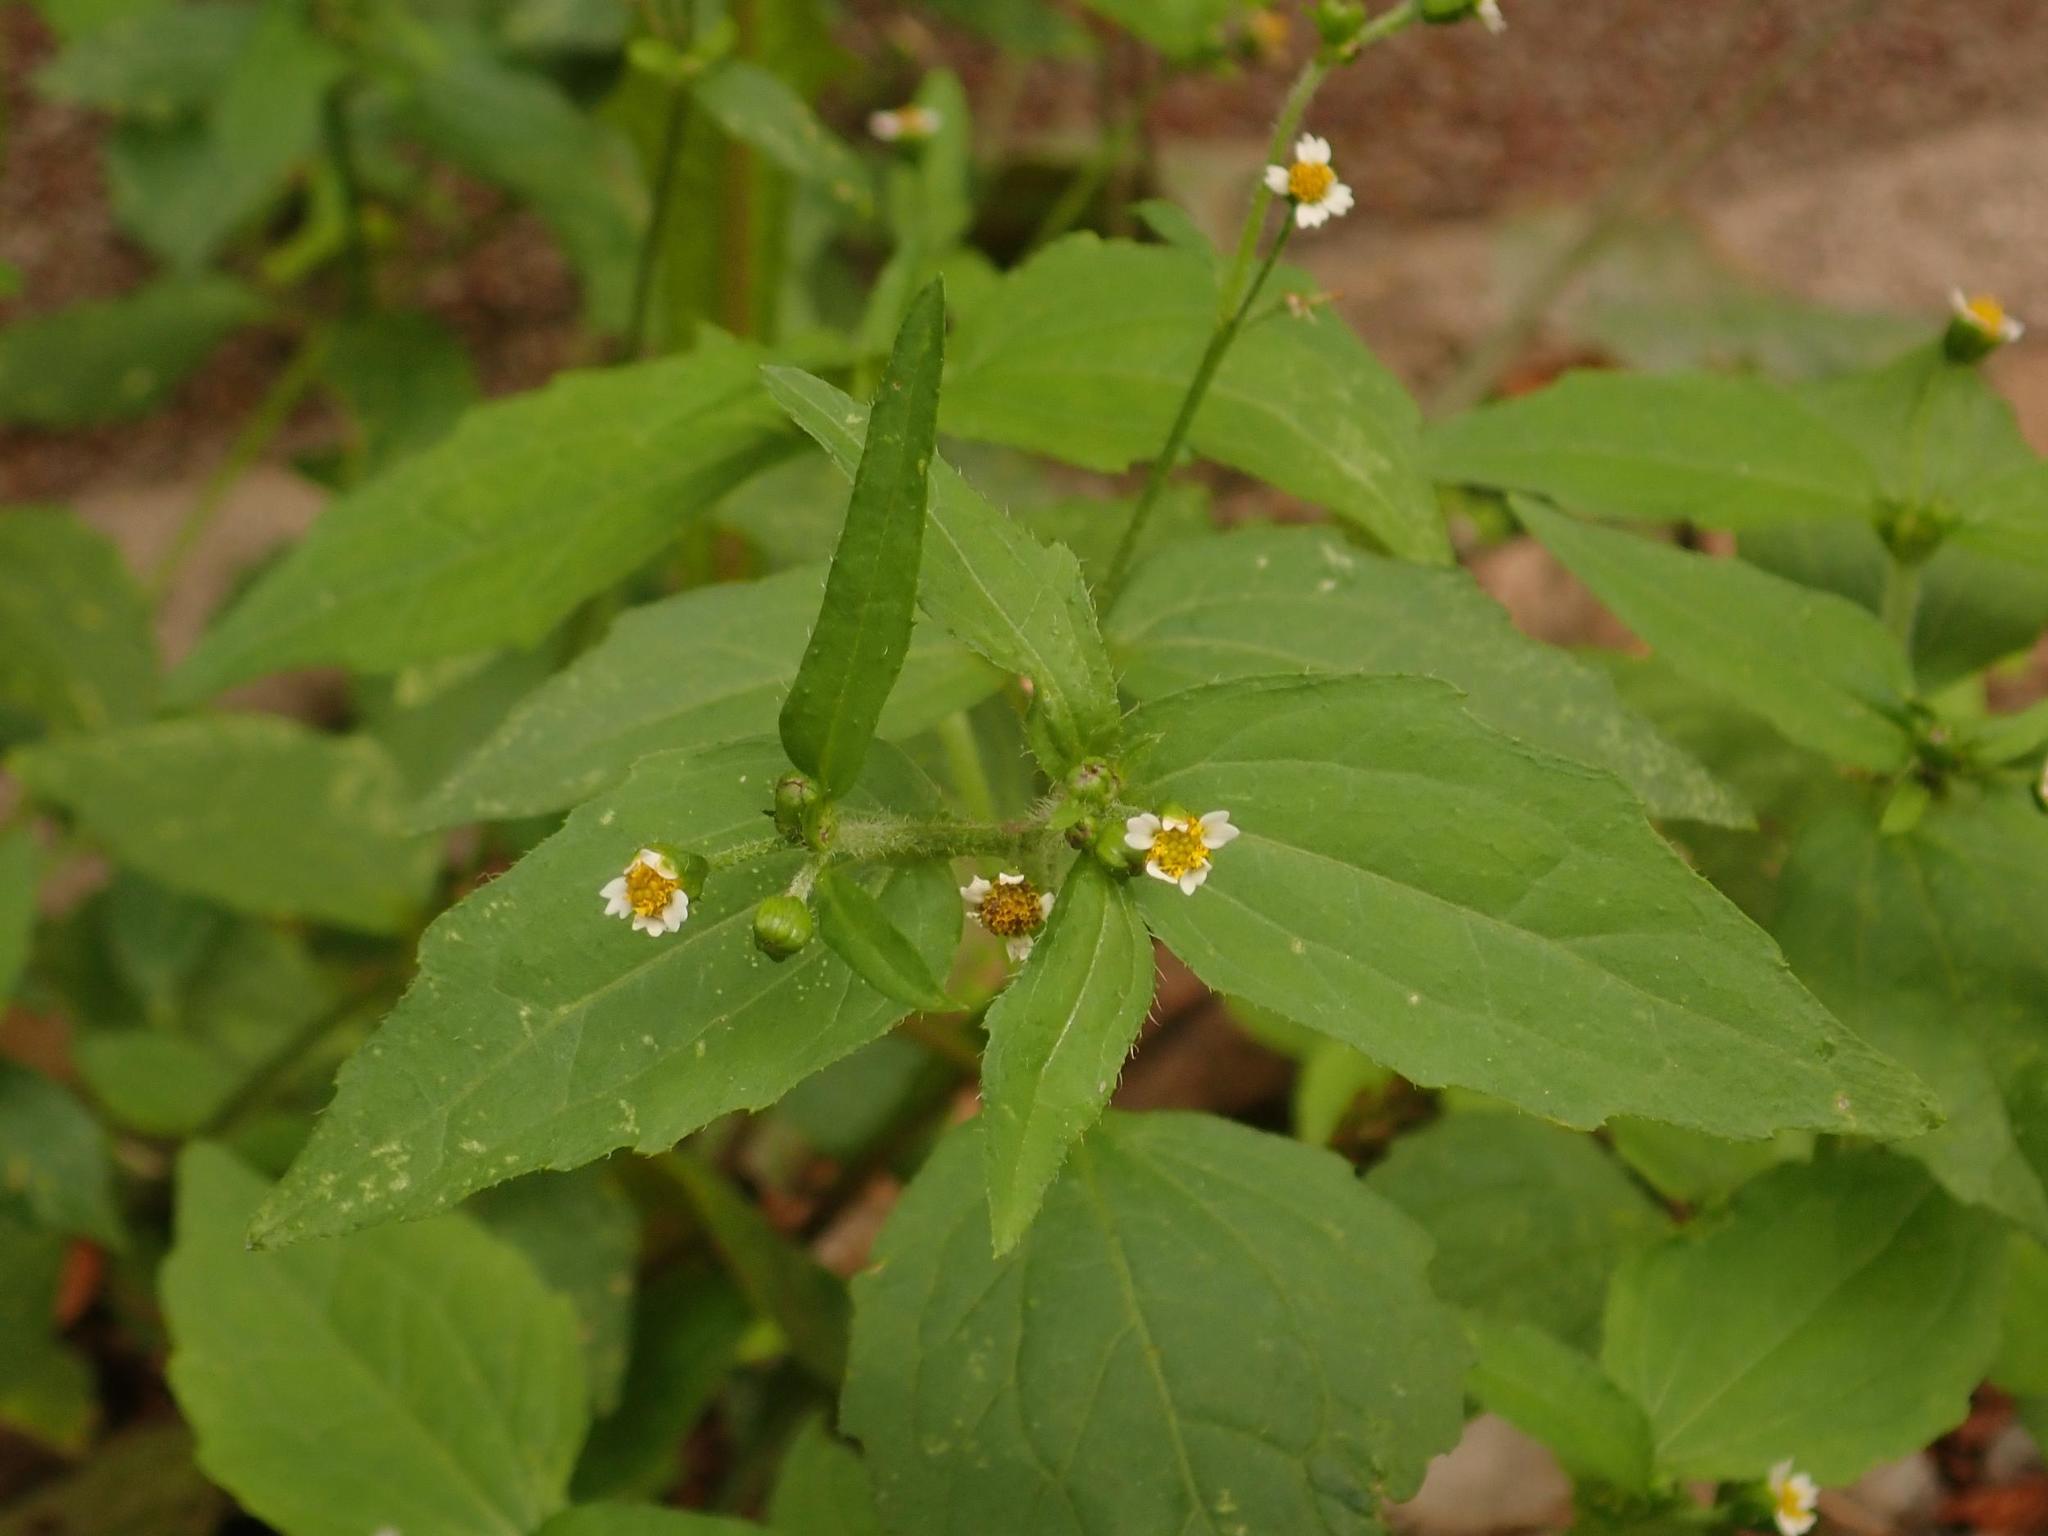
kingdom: Plantae
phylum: Tracheophyta
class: Magnoliopsida
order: Asterales
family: Asteraceae
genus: Galinsoga
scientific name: Galinsoga quadriradiata
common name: Shaggy soldier
